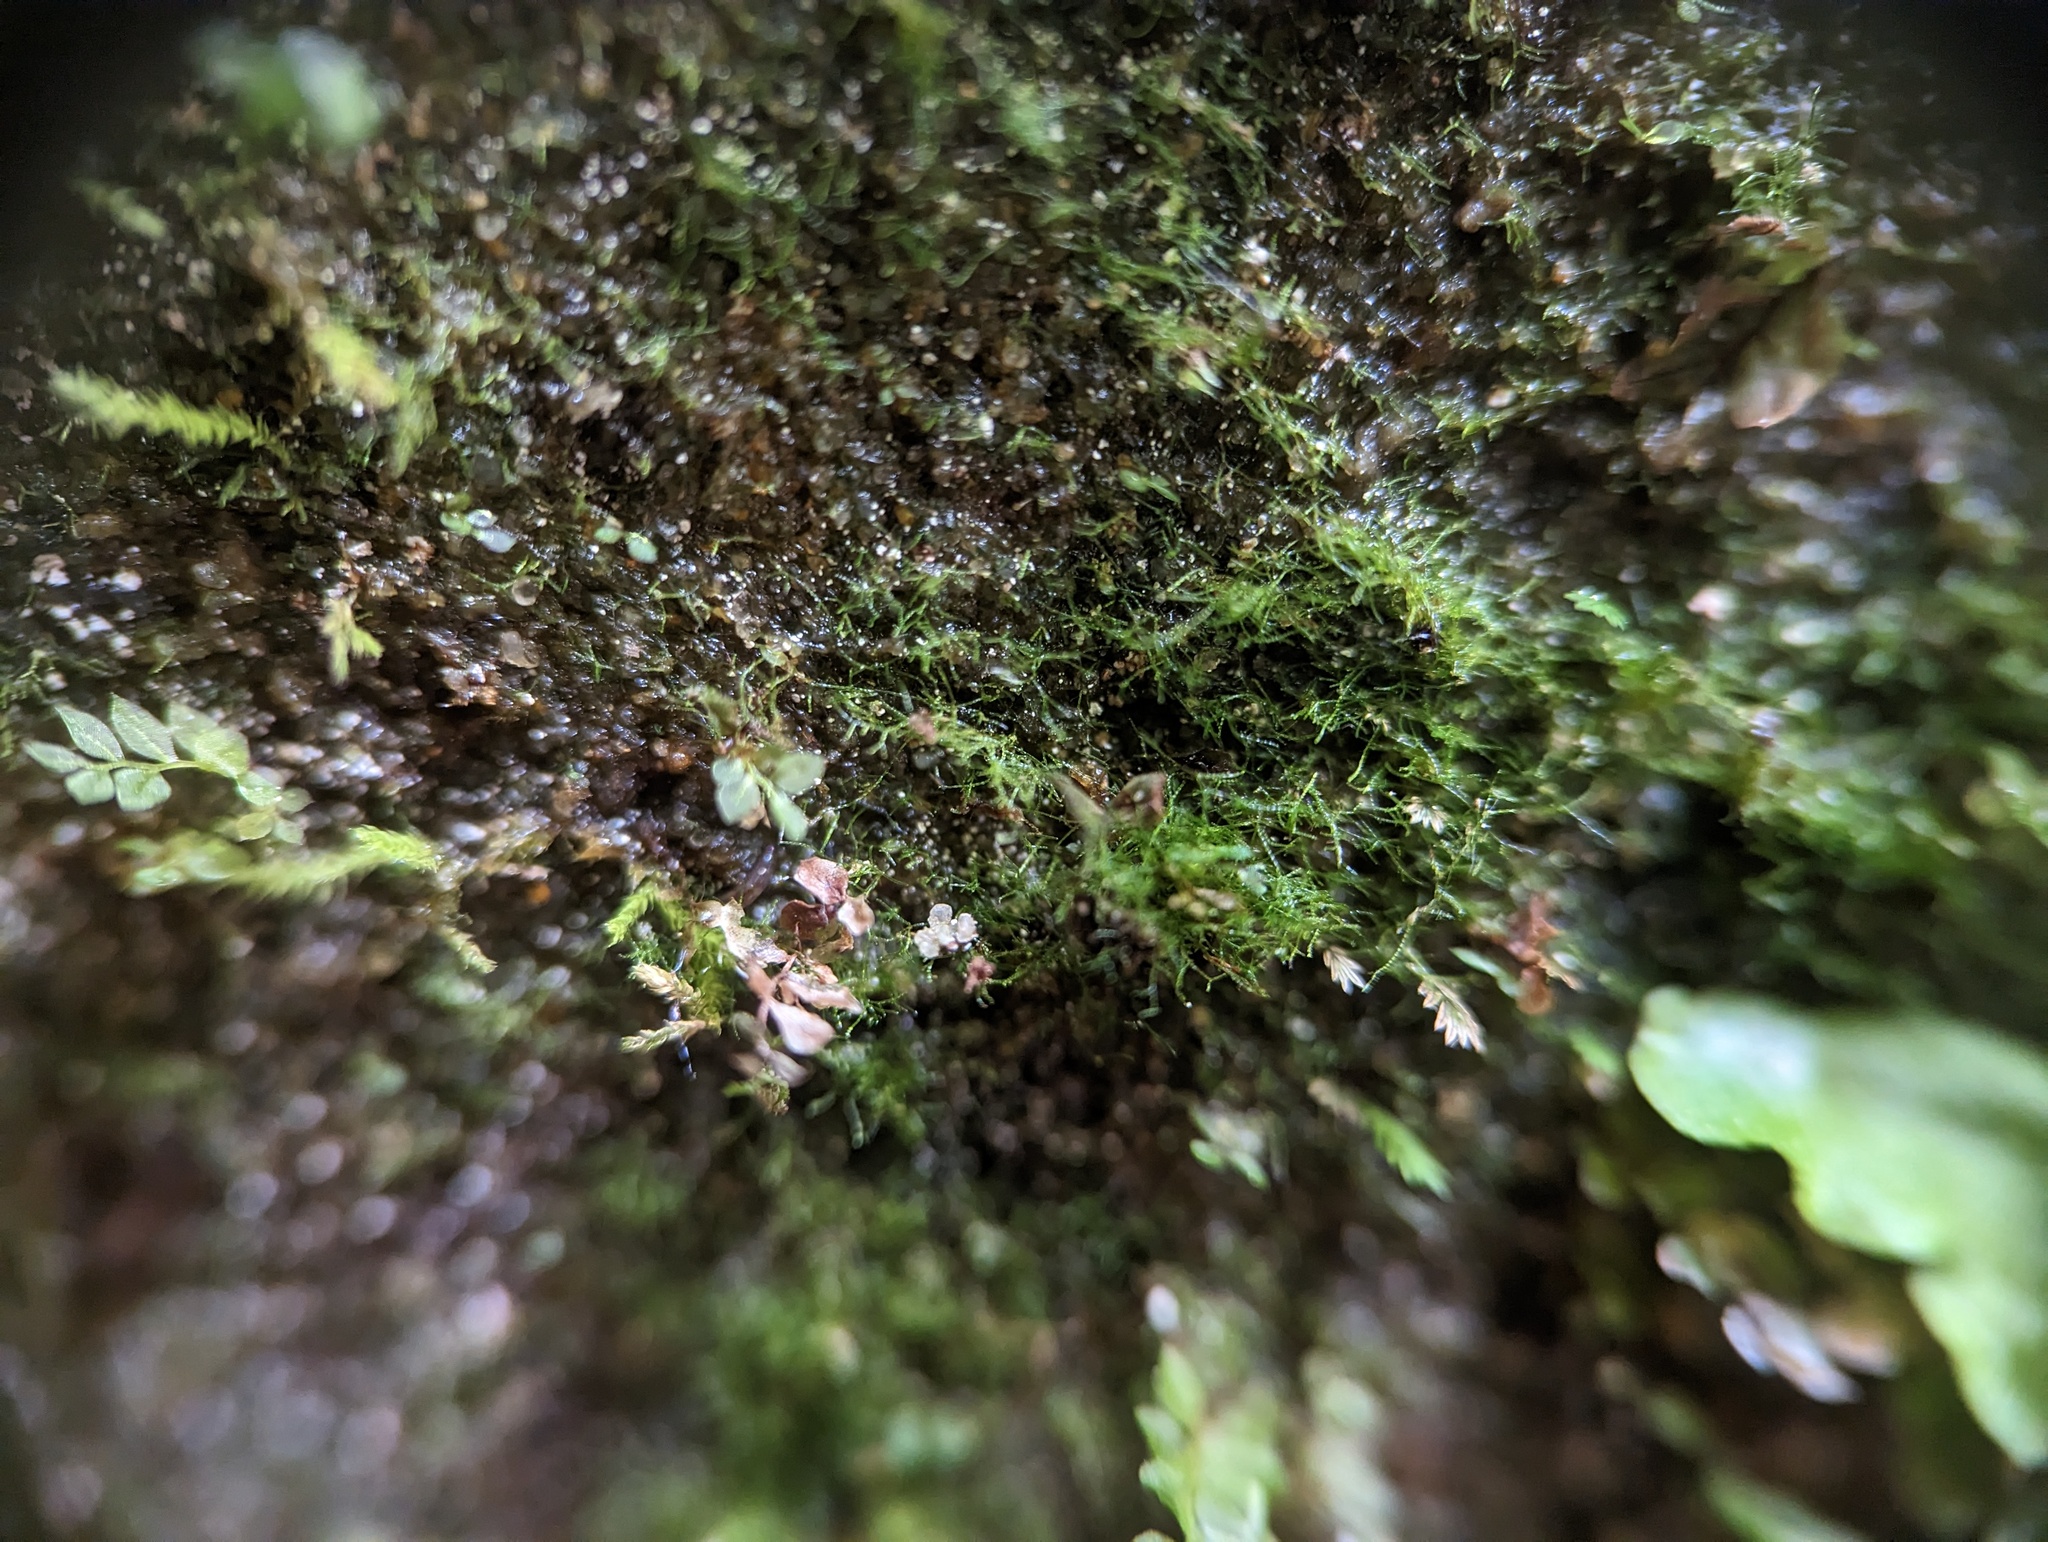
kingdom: Plantae
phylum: Tracheophyta
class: Polypodiopsida
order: Hymenophyllales
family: Hymenophyllaceae
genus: Crepidomanes
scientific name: Crepidomanes intricatum
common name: Weft fern
